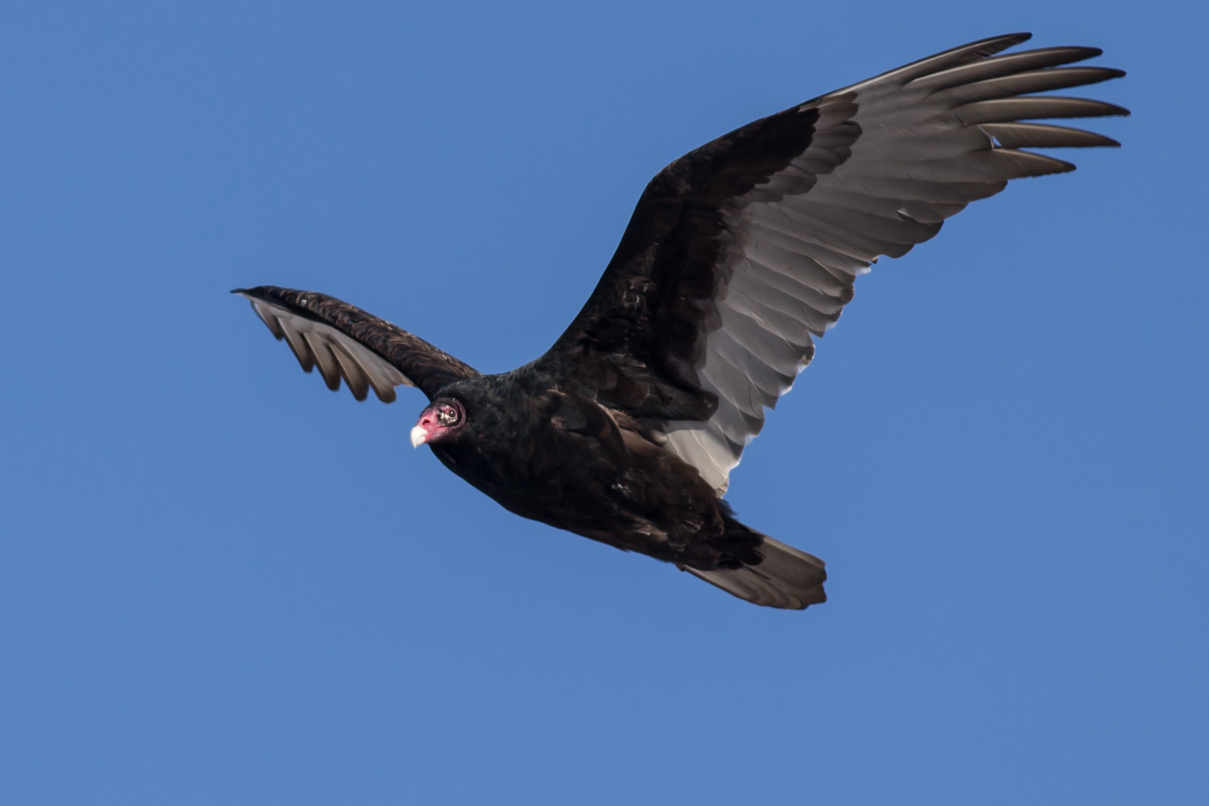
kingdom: Animalia
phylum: Chordata
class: Aves
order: Accipitriformes
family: Cathartidae
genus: Cathartes
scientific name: Cathartes aura
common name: Turkey vulture
